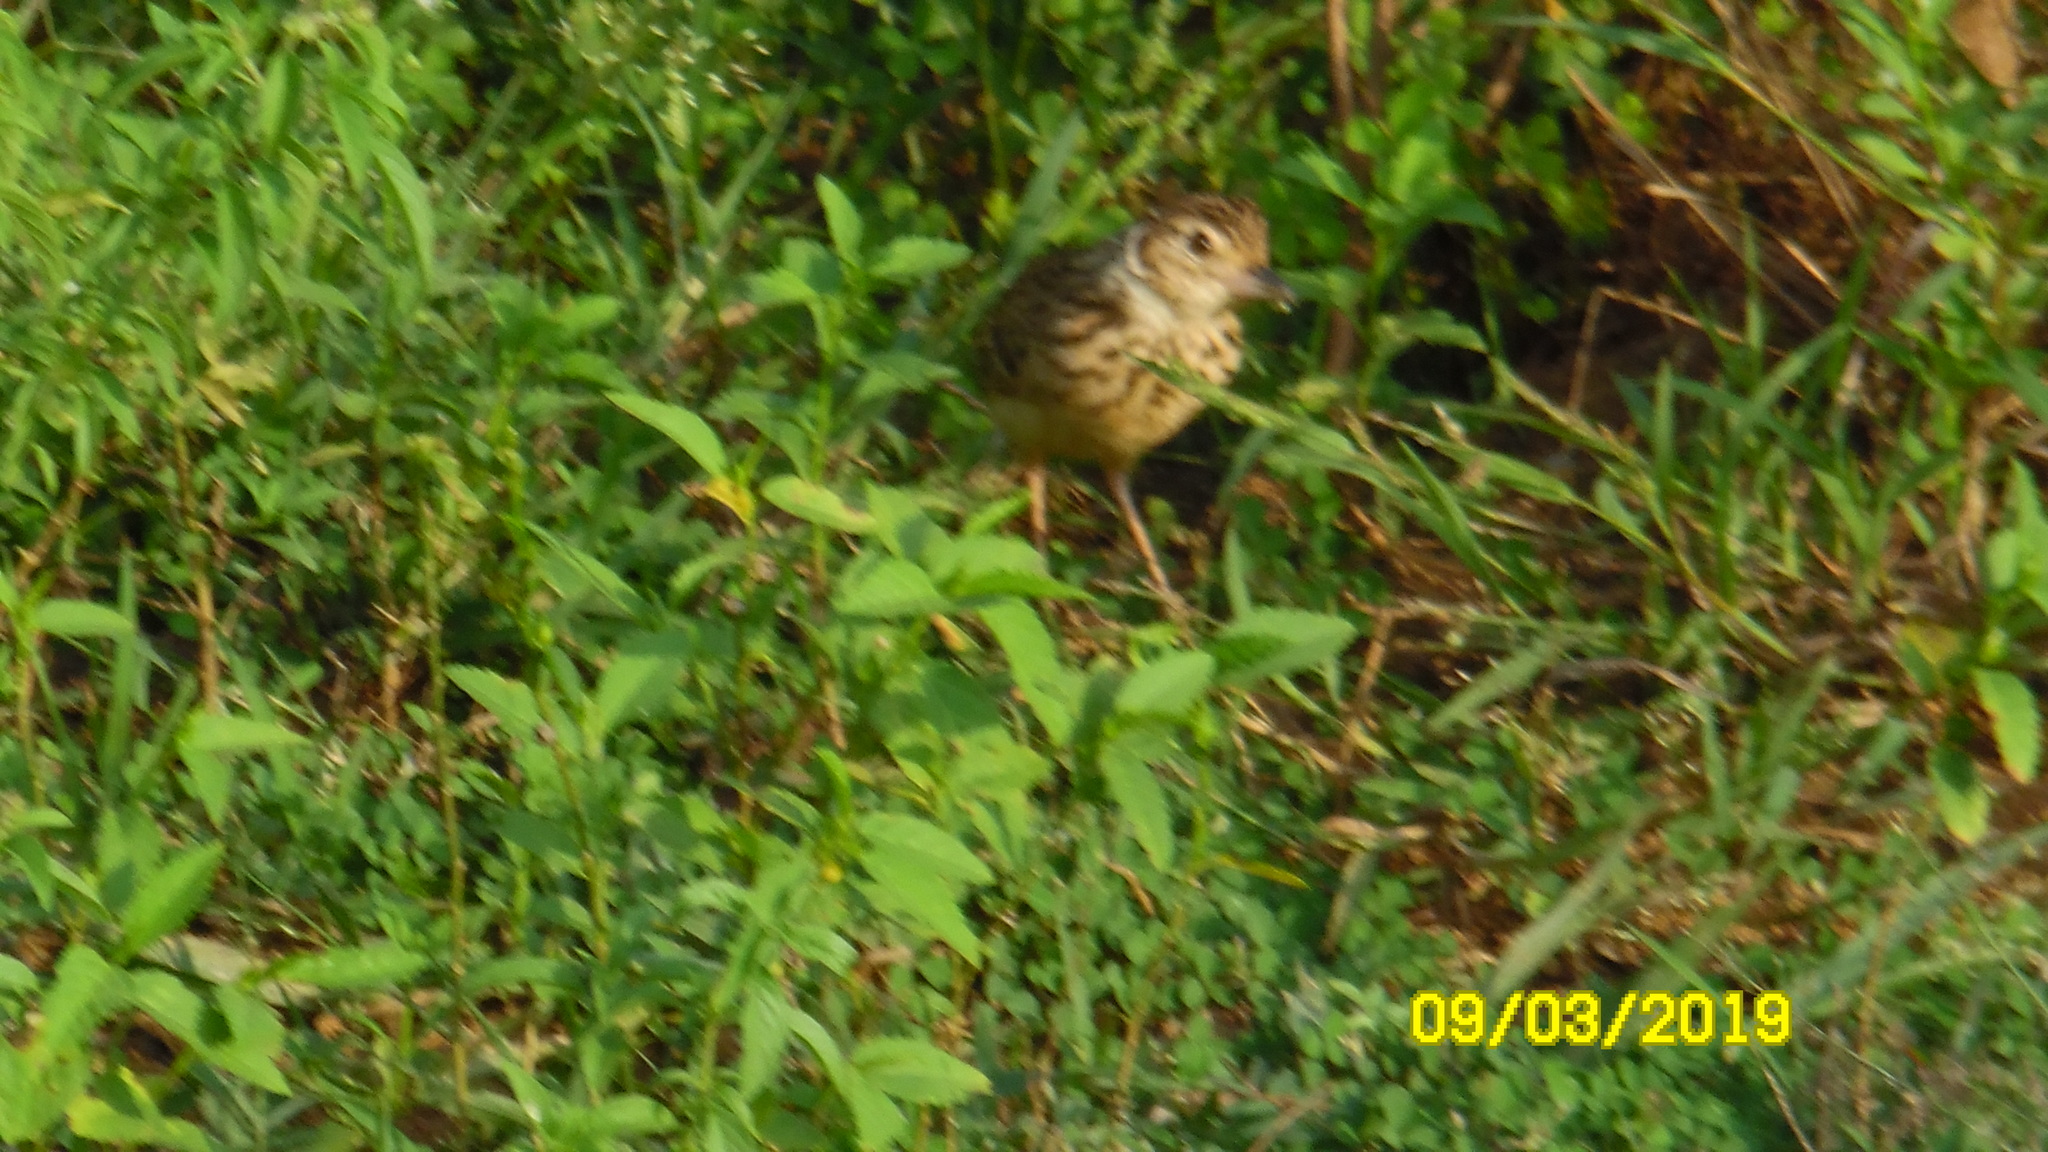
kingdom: Animalia
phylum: Chordata
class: Aves
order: Passeriformes
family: Alaudidae
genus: Mirafra
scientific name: Mirafra affinis
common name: Jerdon's bushlark
